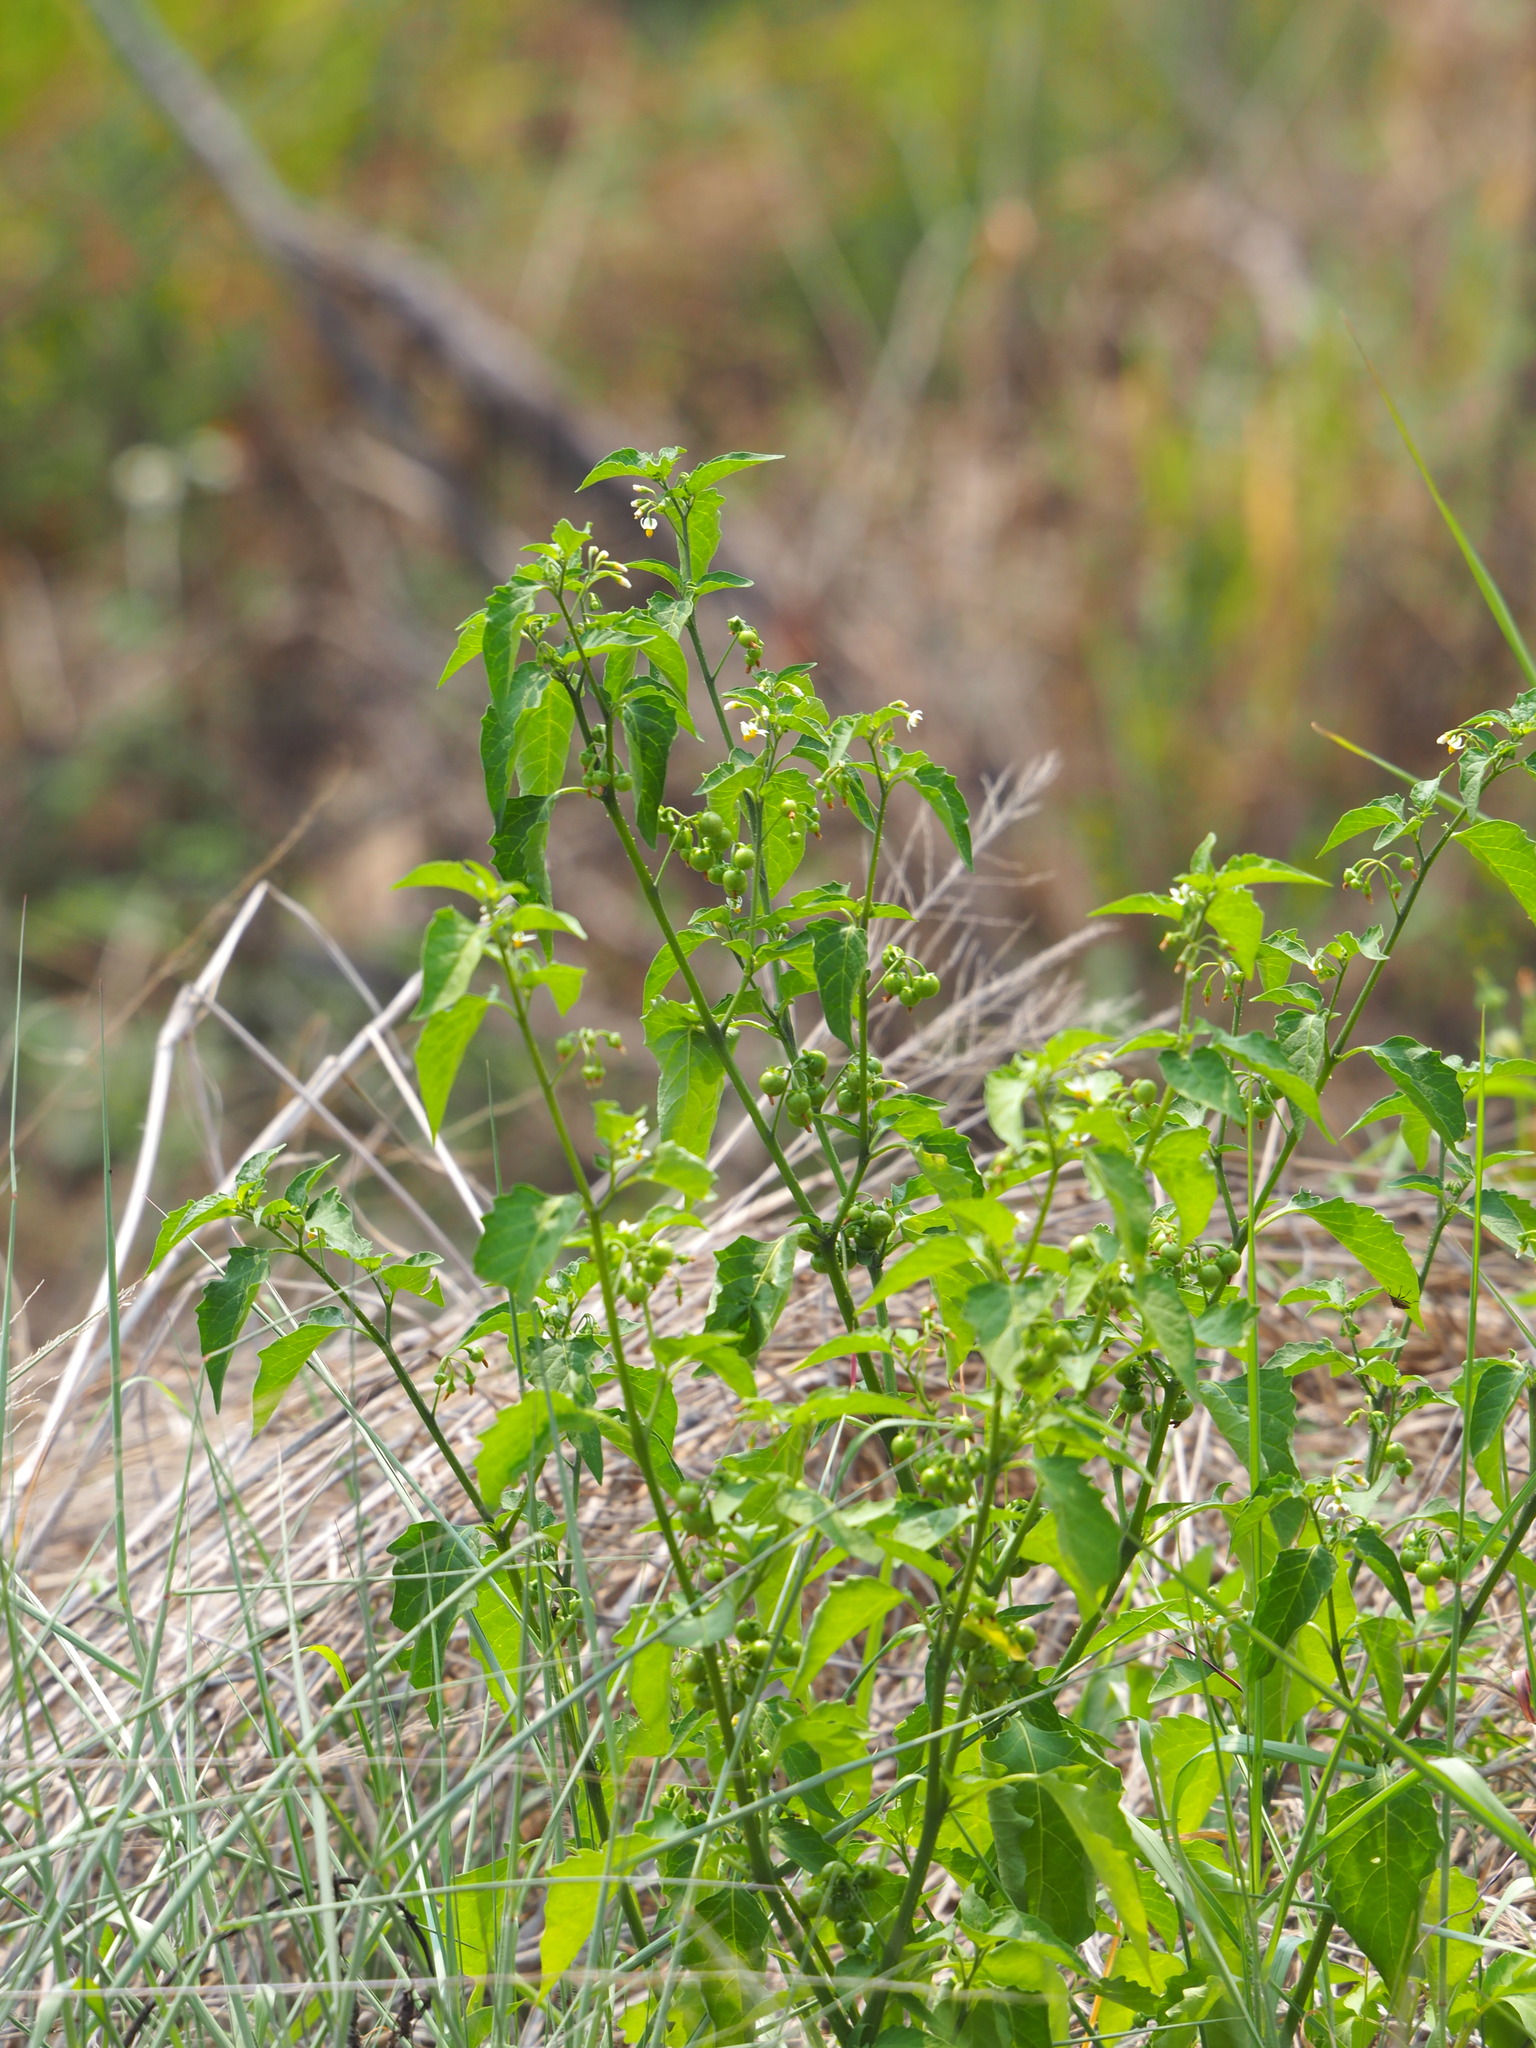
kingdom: Plantae
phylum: Tracheophyta
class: Magnoliopsida
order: Solanales
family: Solanaceae
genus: Solanum
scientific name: Solanum americanum
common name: American black nightshade
